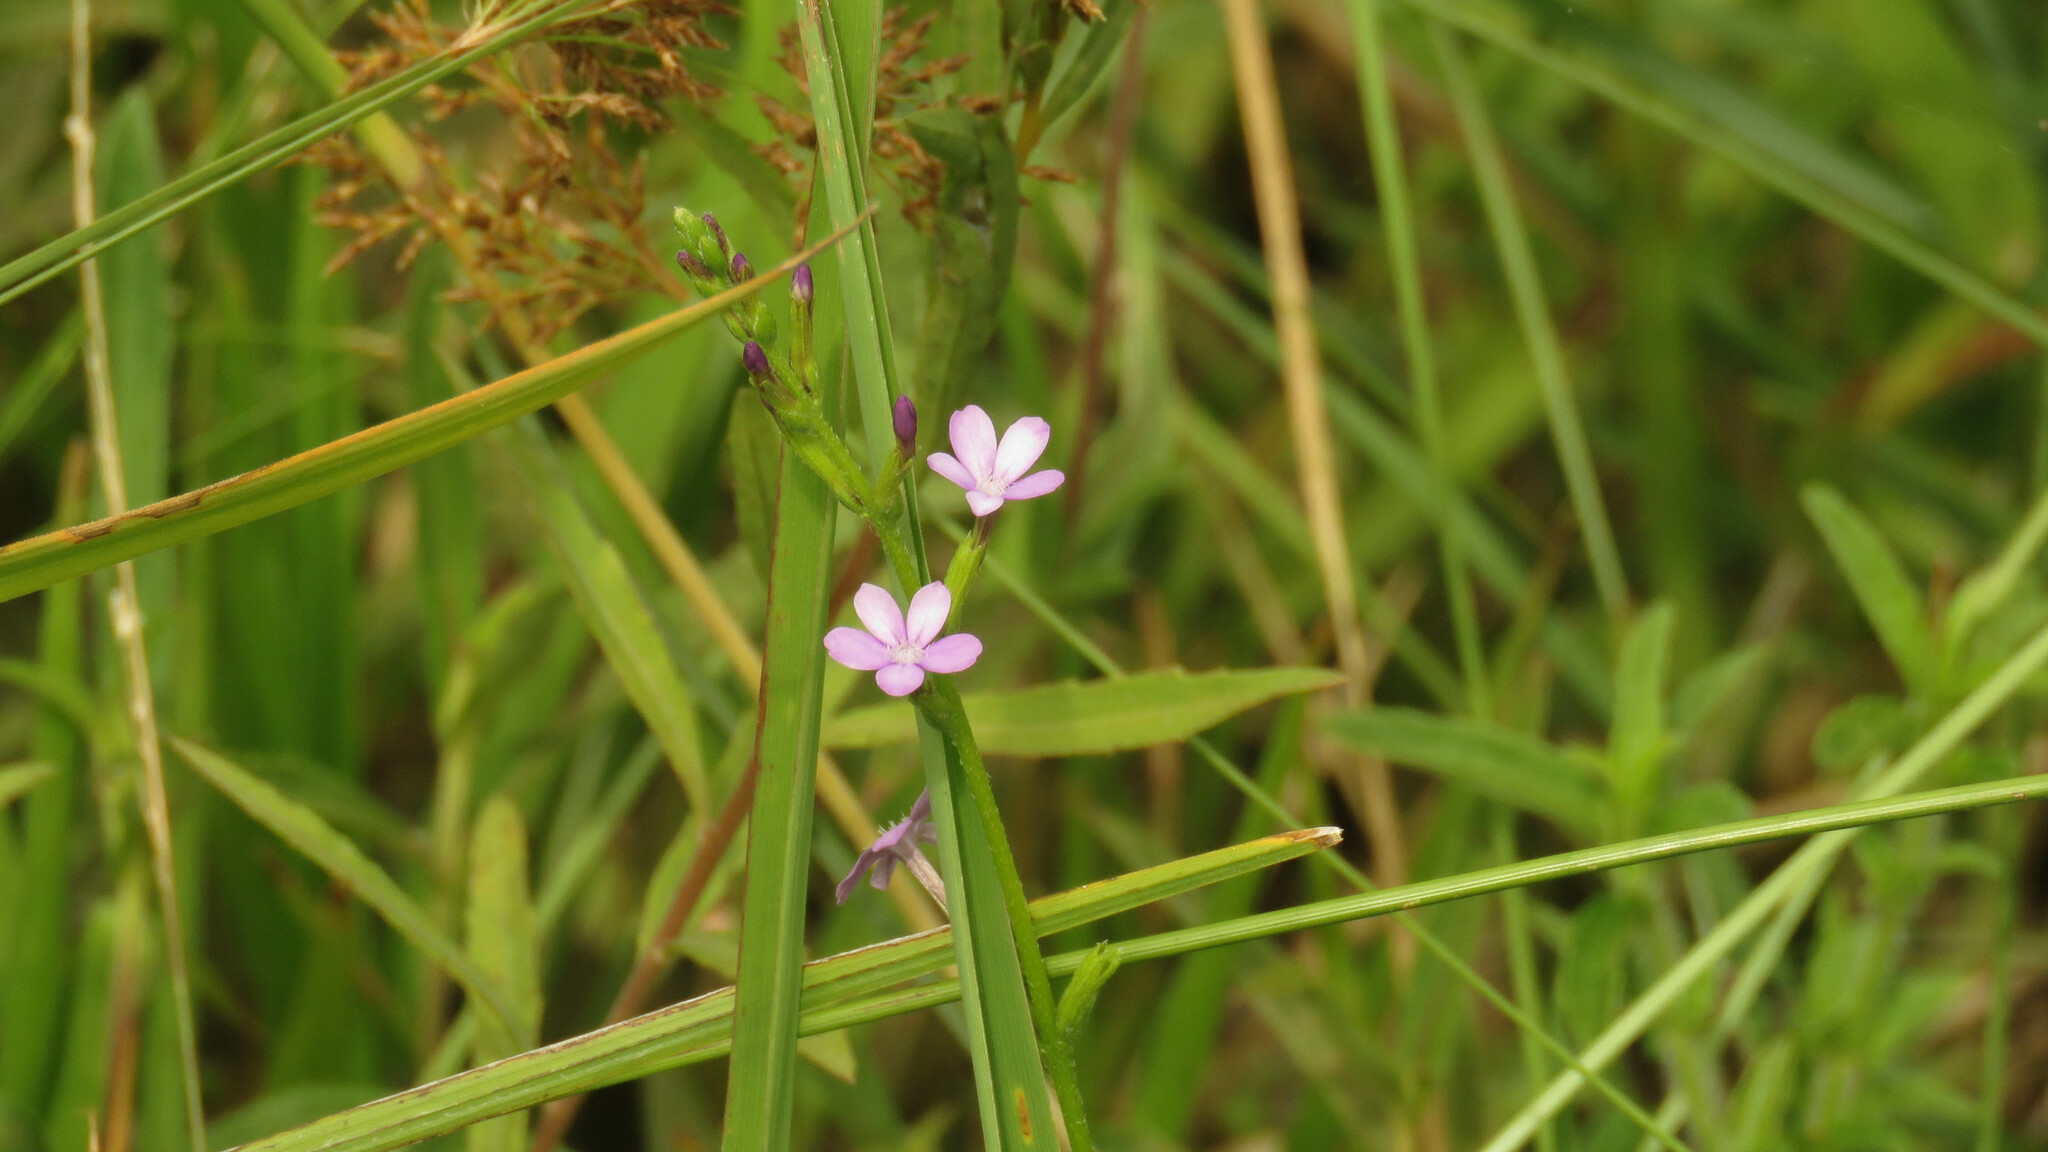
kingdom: Plantae
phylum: Tracheophyta
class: Magnoliopsida
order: Lamiales
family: Orobanchaceae
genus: Buchnera
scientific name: Buchnera longifolia
